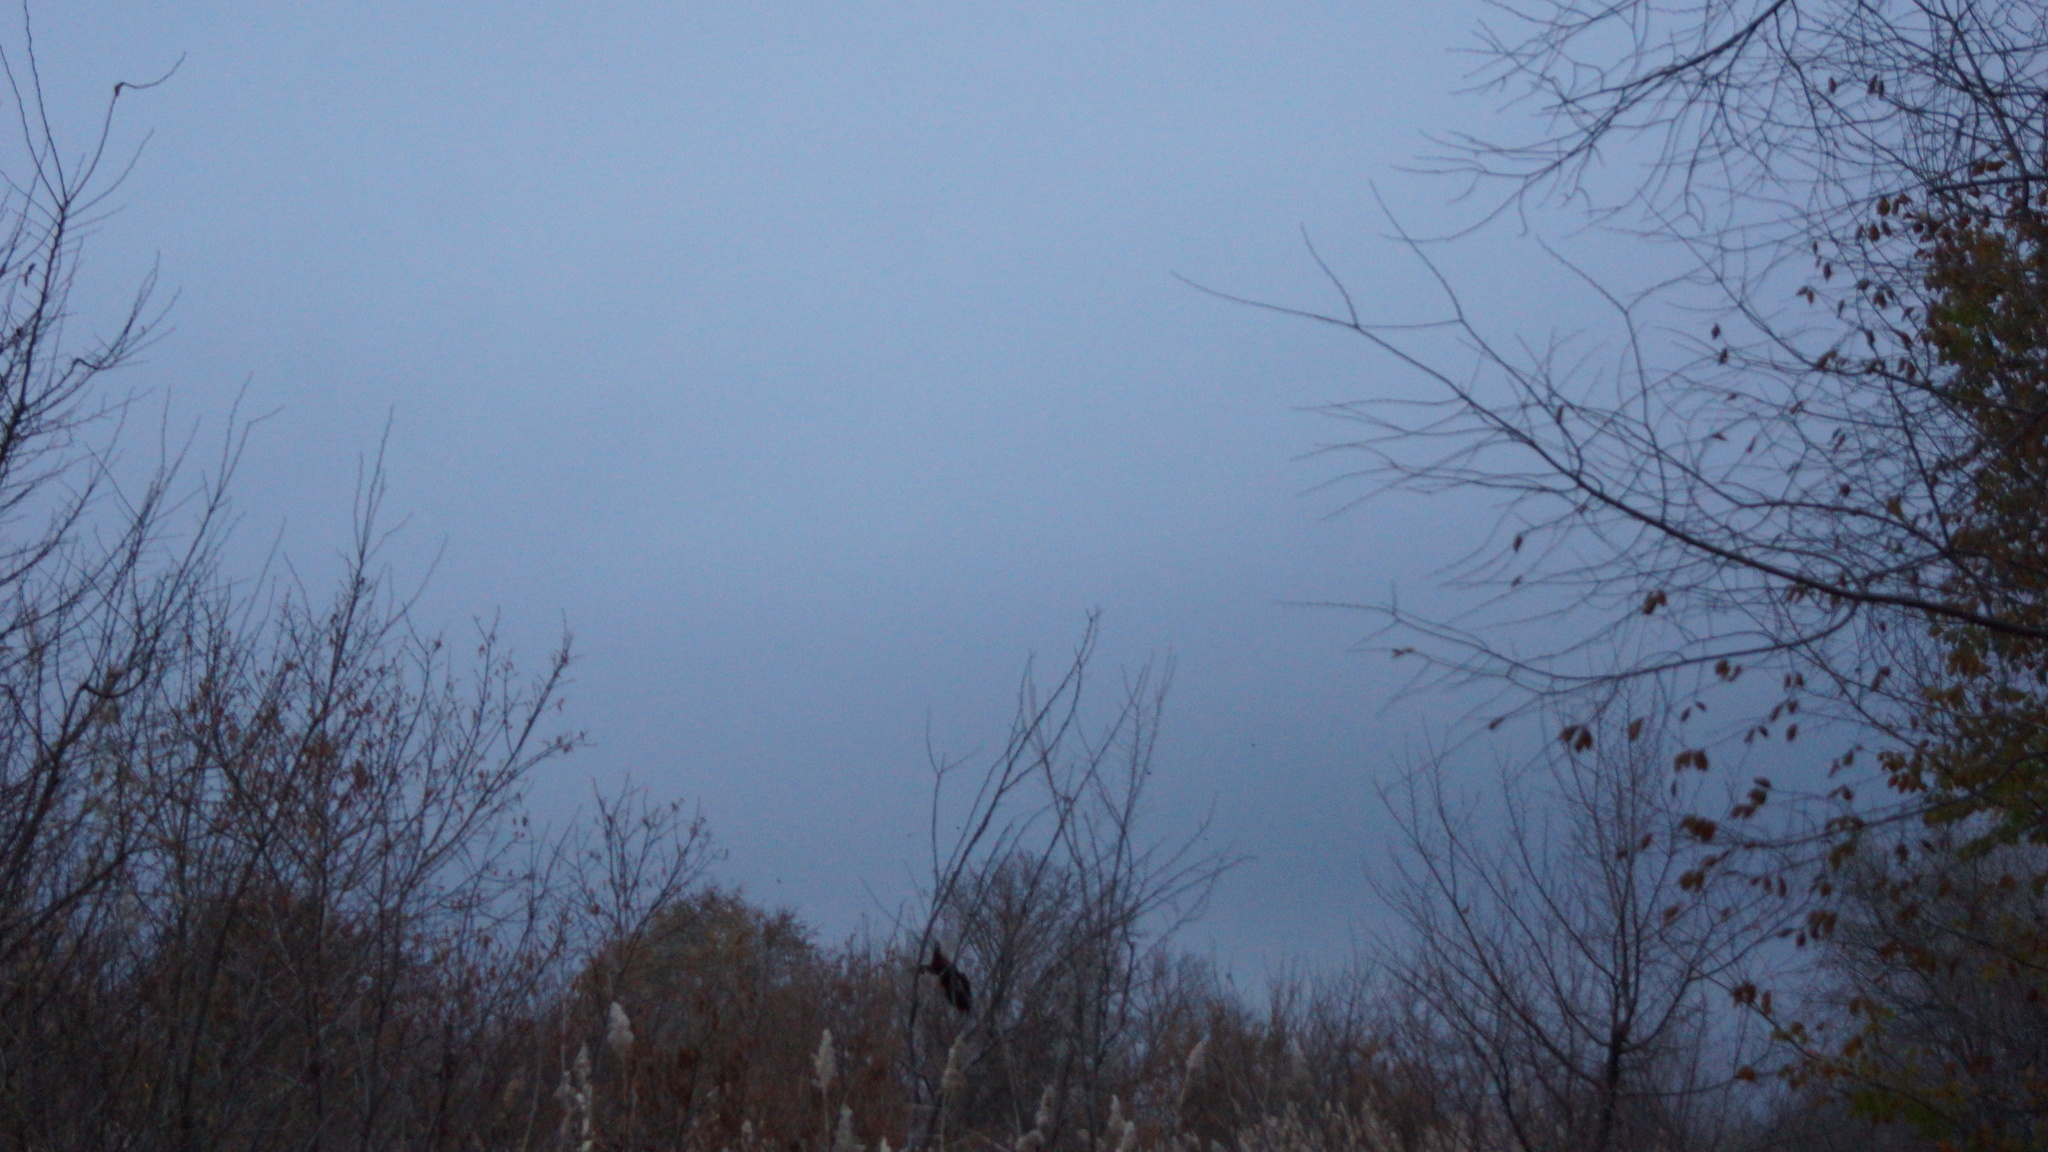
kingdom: Animalia
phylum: Chordata
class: Aves
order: Galliformes
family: Phasianidae
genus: Phasianus
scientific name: Phasianus colchicus
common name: Common pheasant
